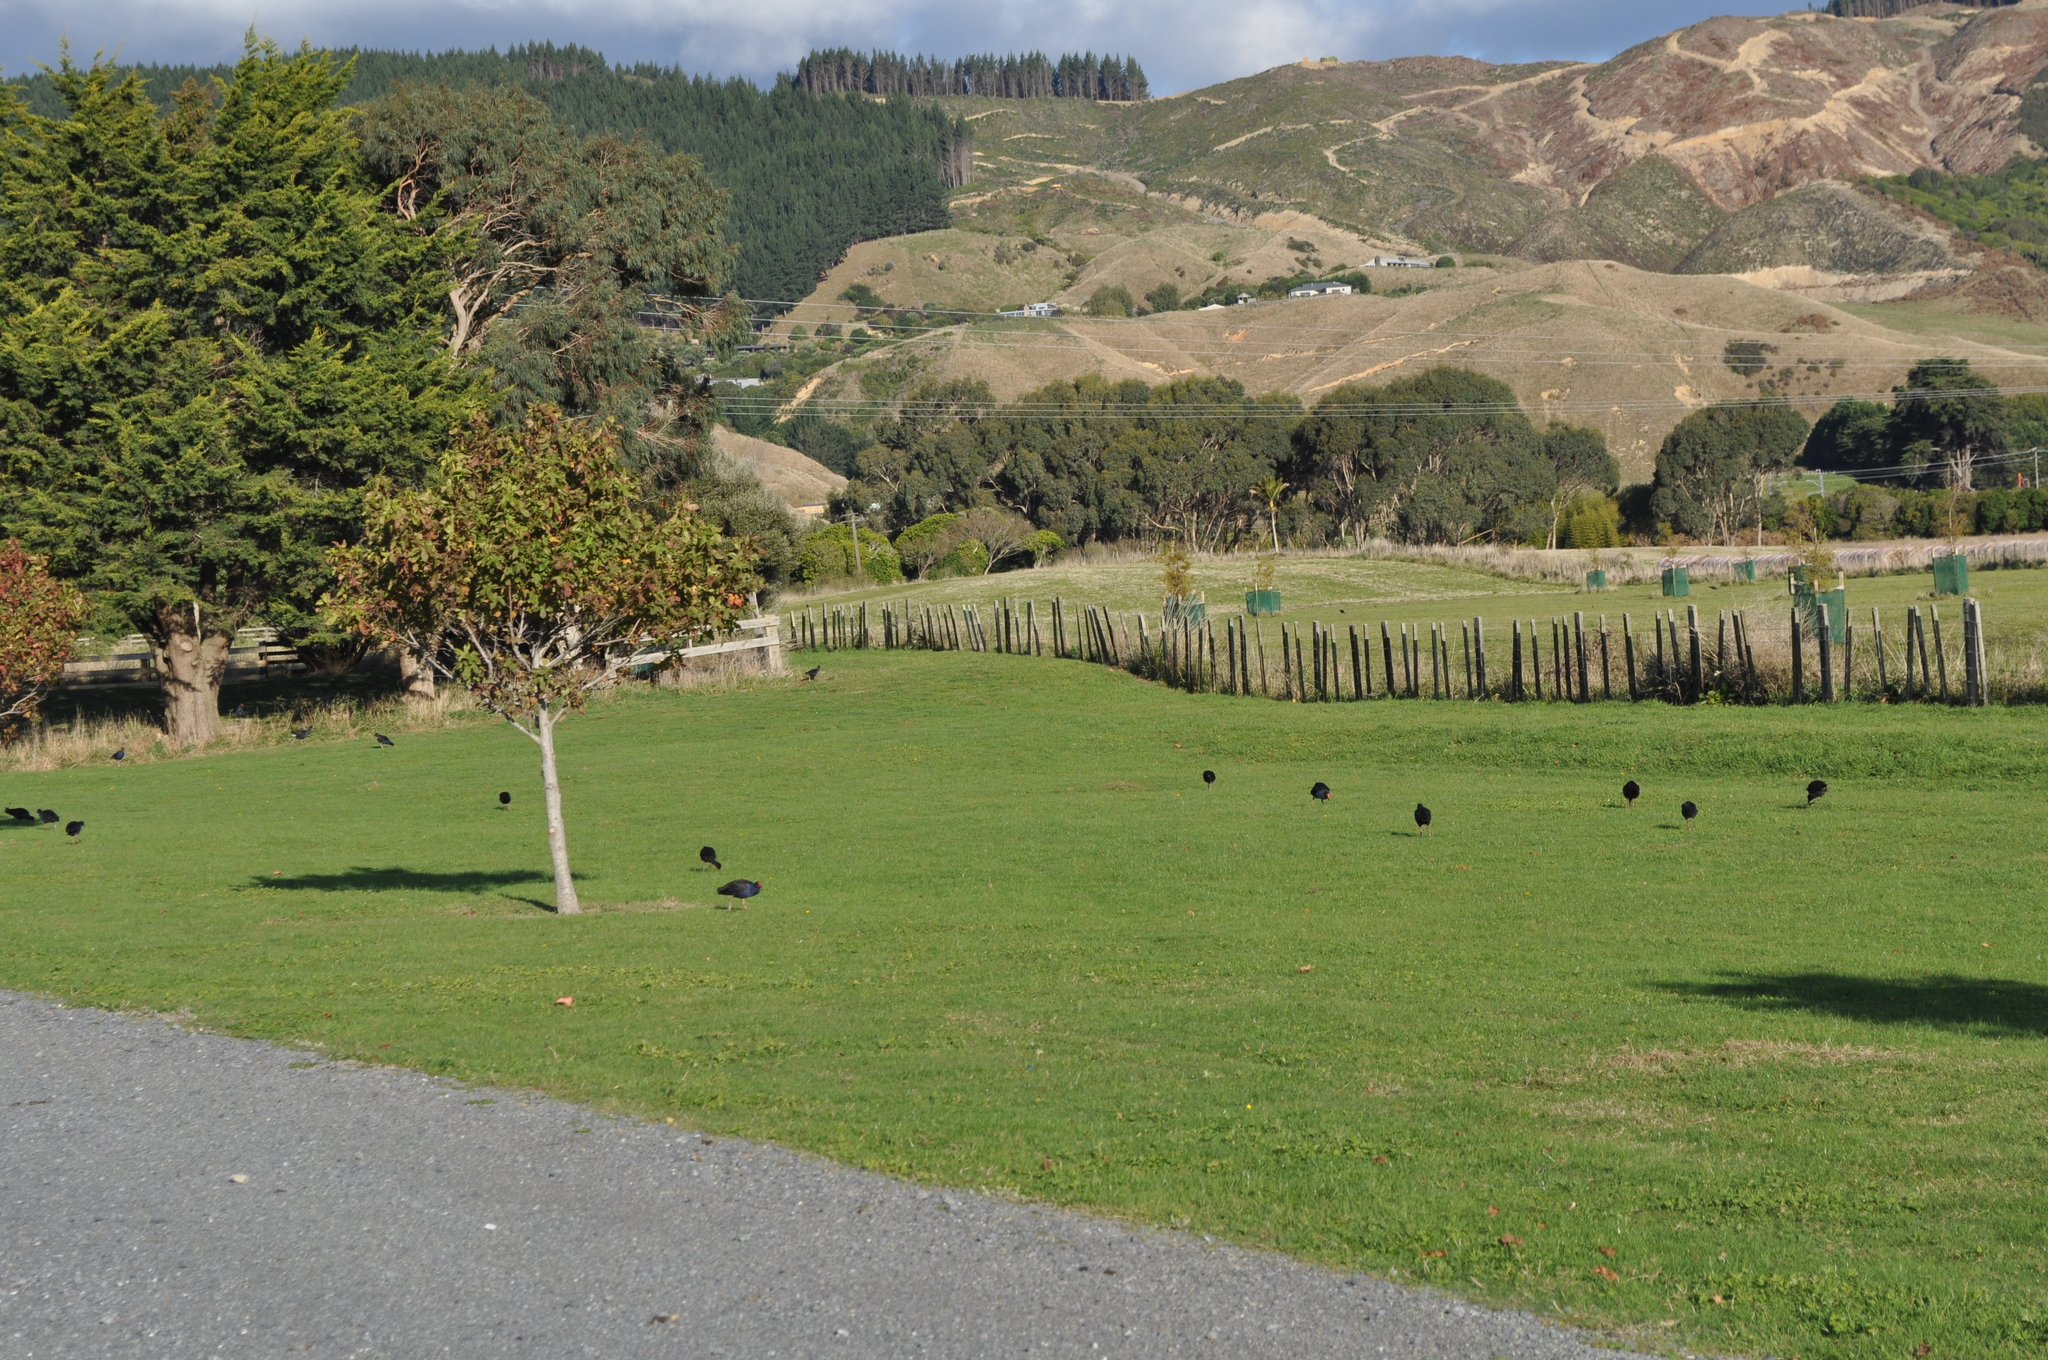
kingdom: Animalia
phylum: Chordata
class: Aves
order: Gruiformes
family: Rallidae
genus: Porphyrio
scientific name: Porphyrio melanotus
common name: Australasian swamphen
